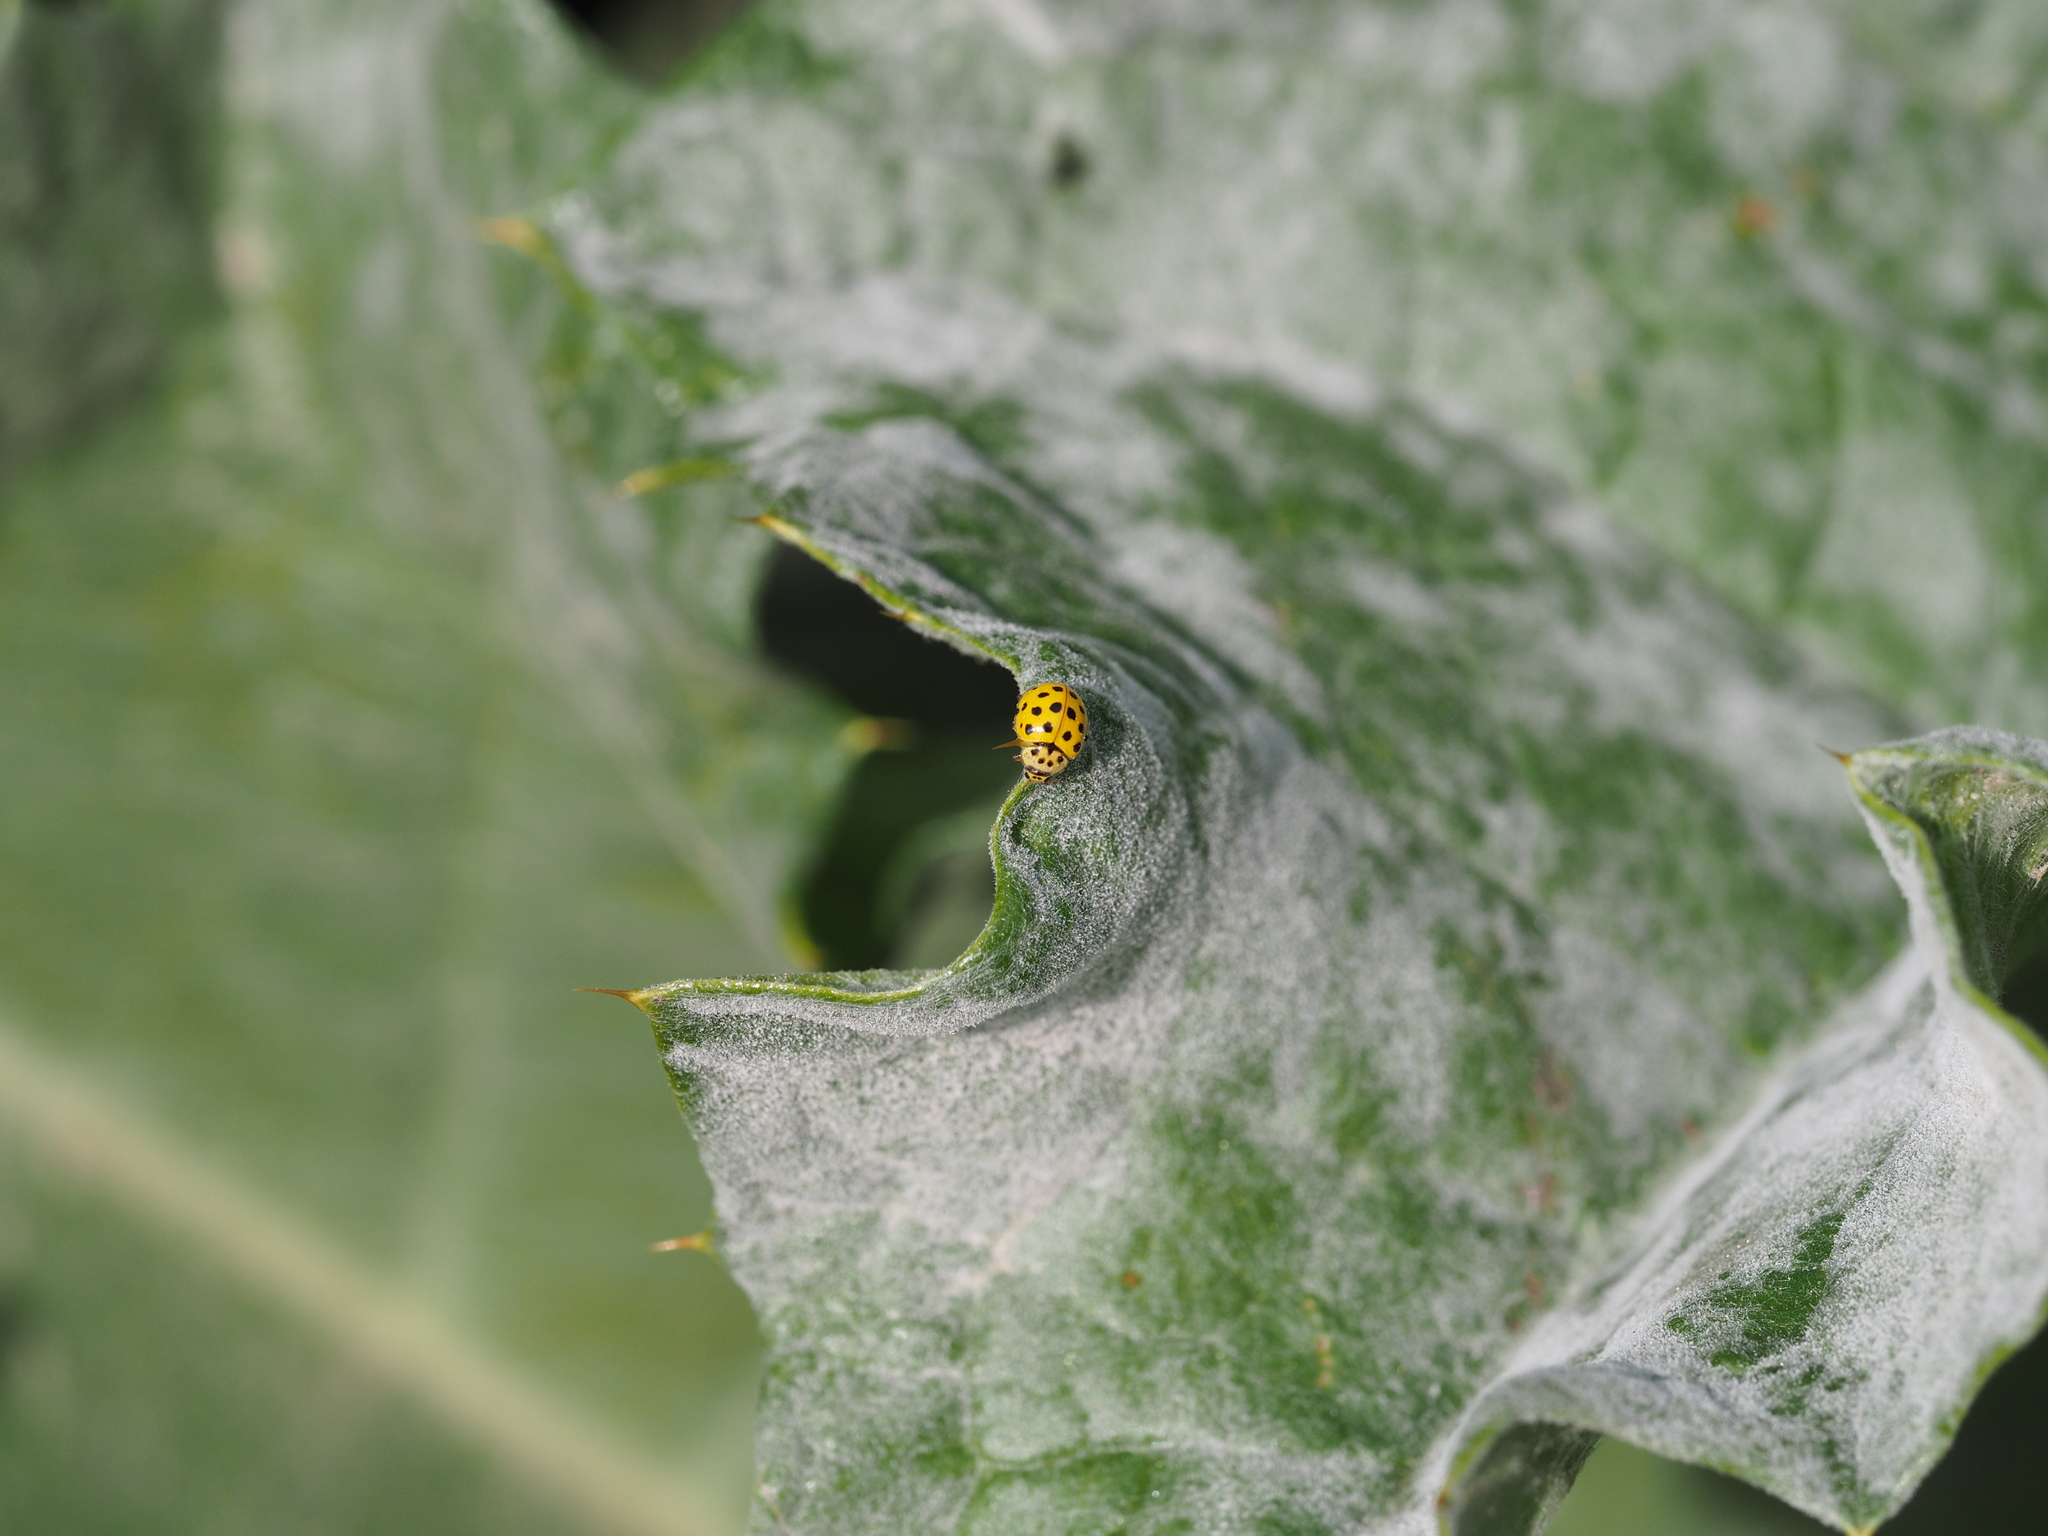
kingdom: Animalia
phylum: Arthropoda
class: Insecta
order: Coleoptera
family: Coccinellidae
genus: Psyllobora
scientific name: Psyllobora vigintiduopunctata
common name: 22-spot ladybird
